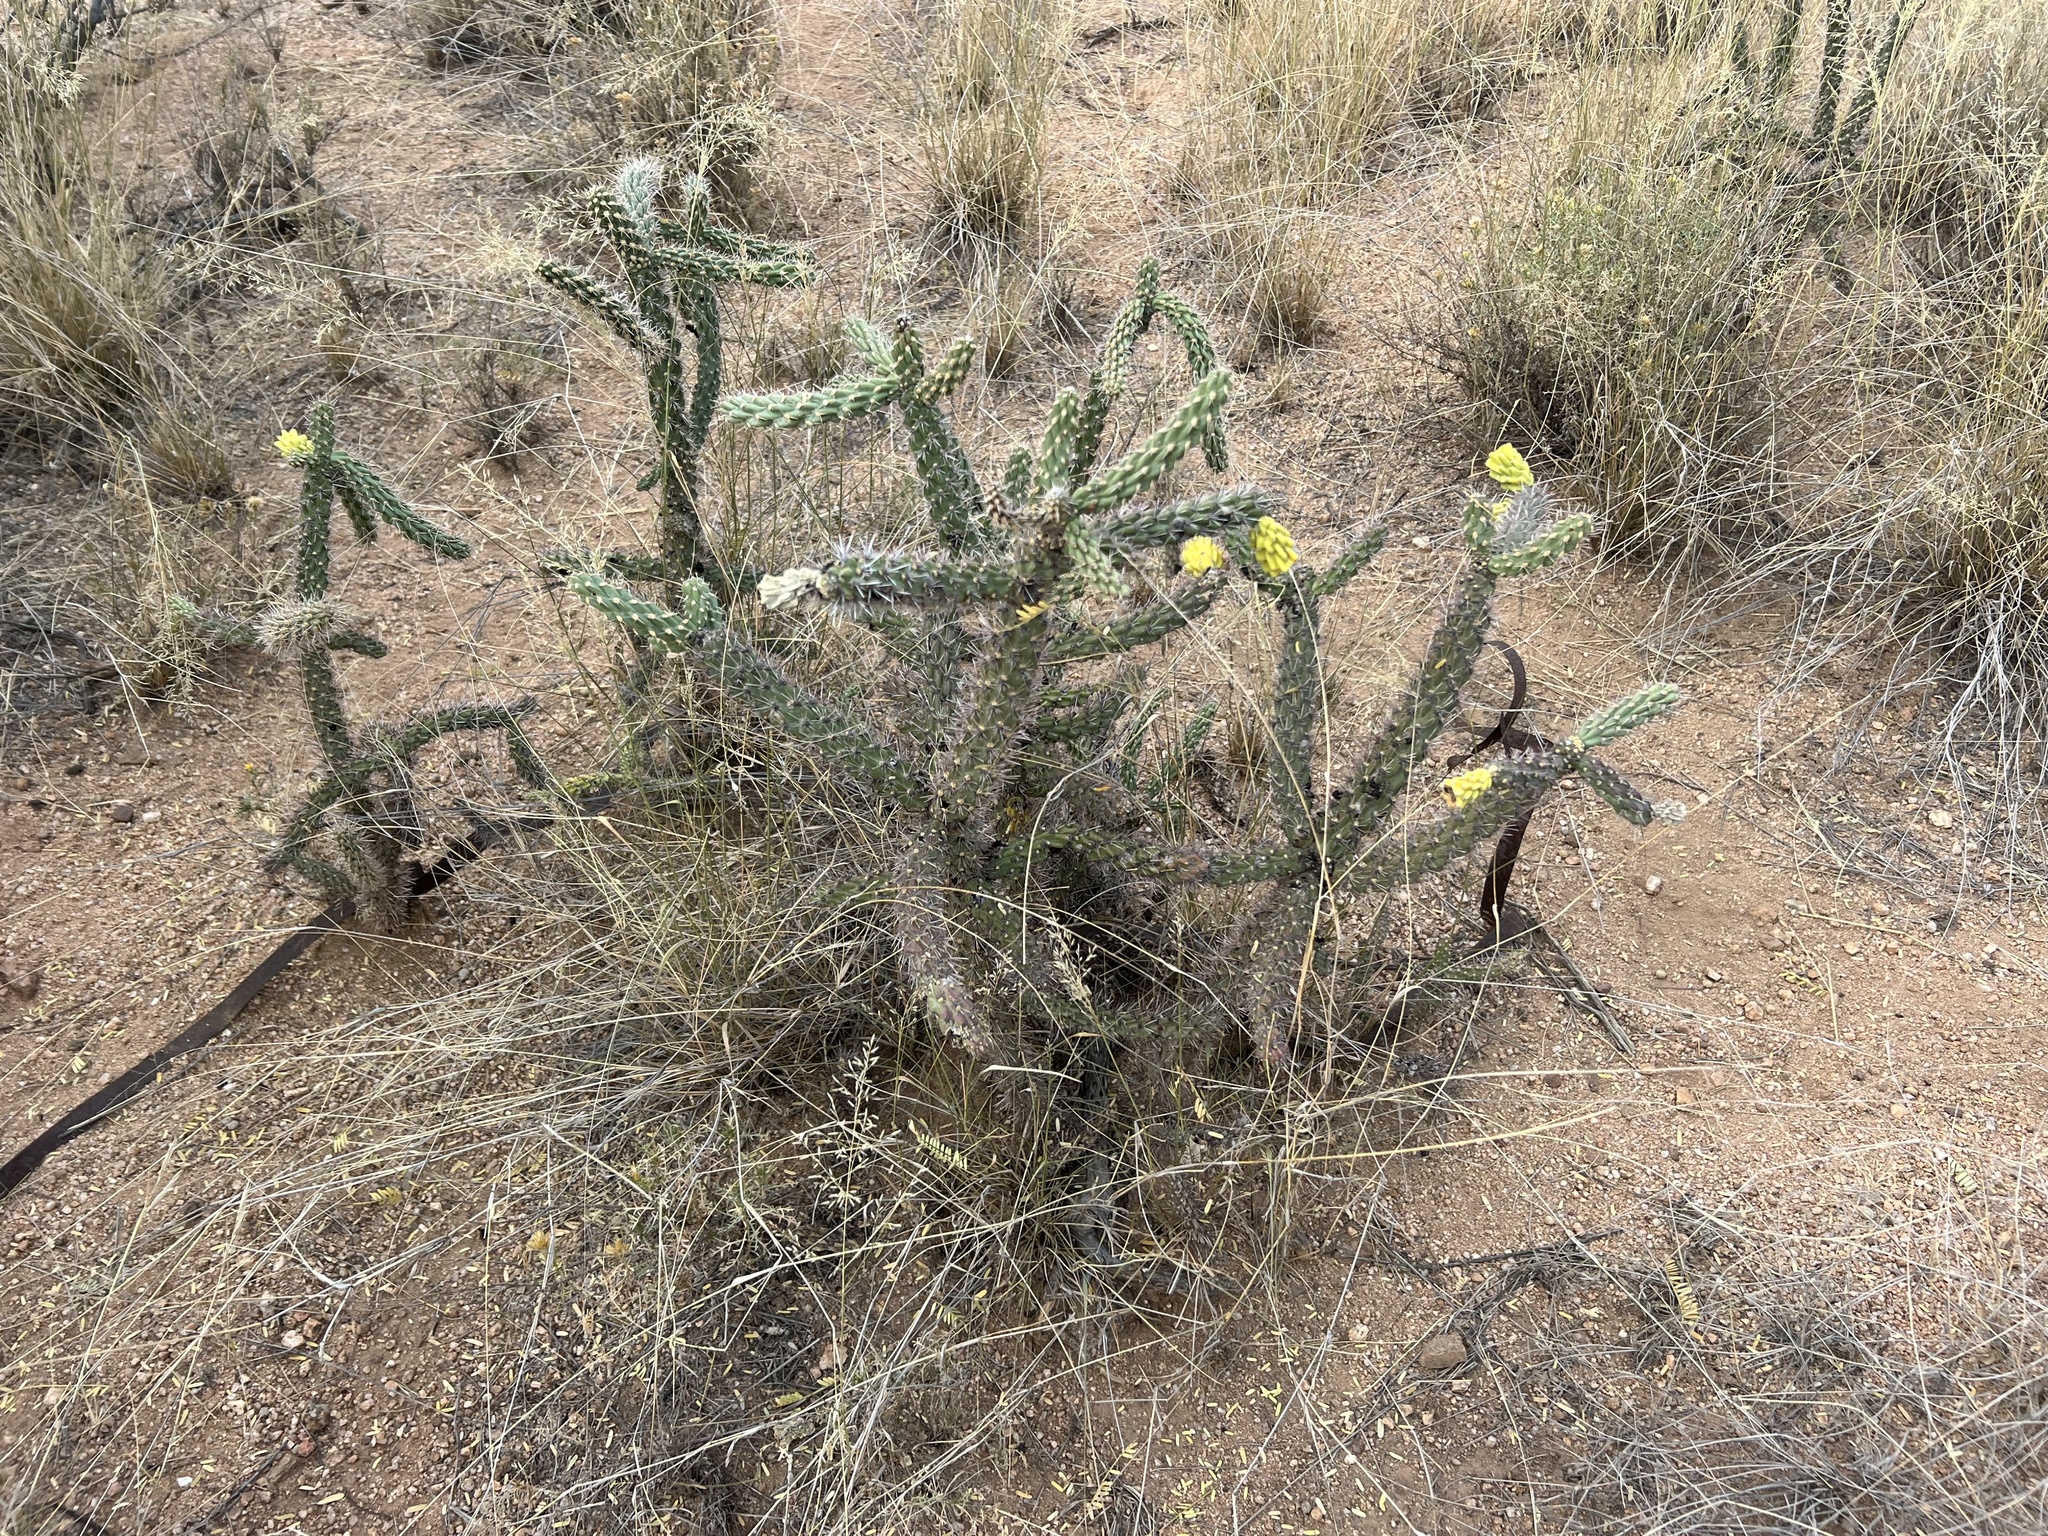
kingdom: Plantae
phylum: Tracheophyta
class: Magnoliopsida
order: Caryophyllales
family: Cactaceae
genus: Cylindropuntia
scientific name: Cylindropuntia imbricata
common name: Candelabrum cactus
